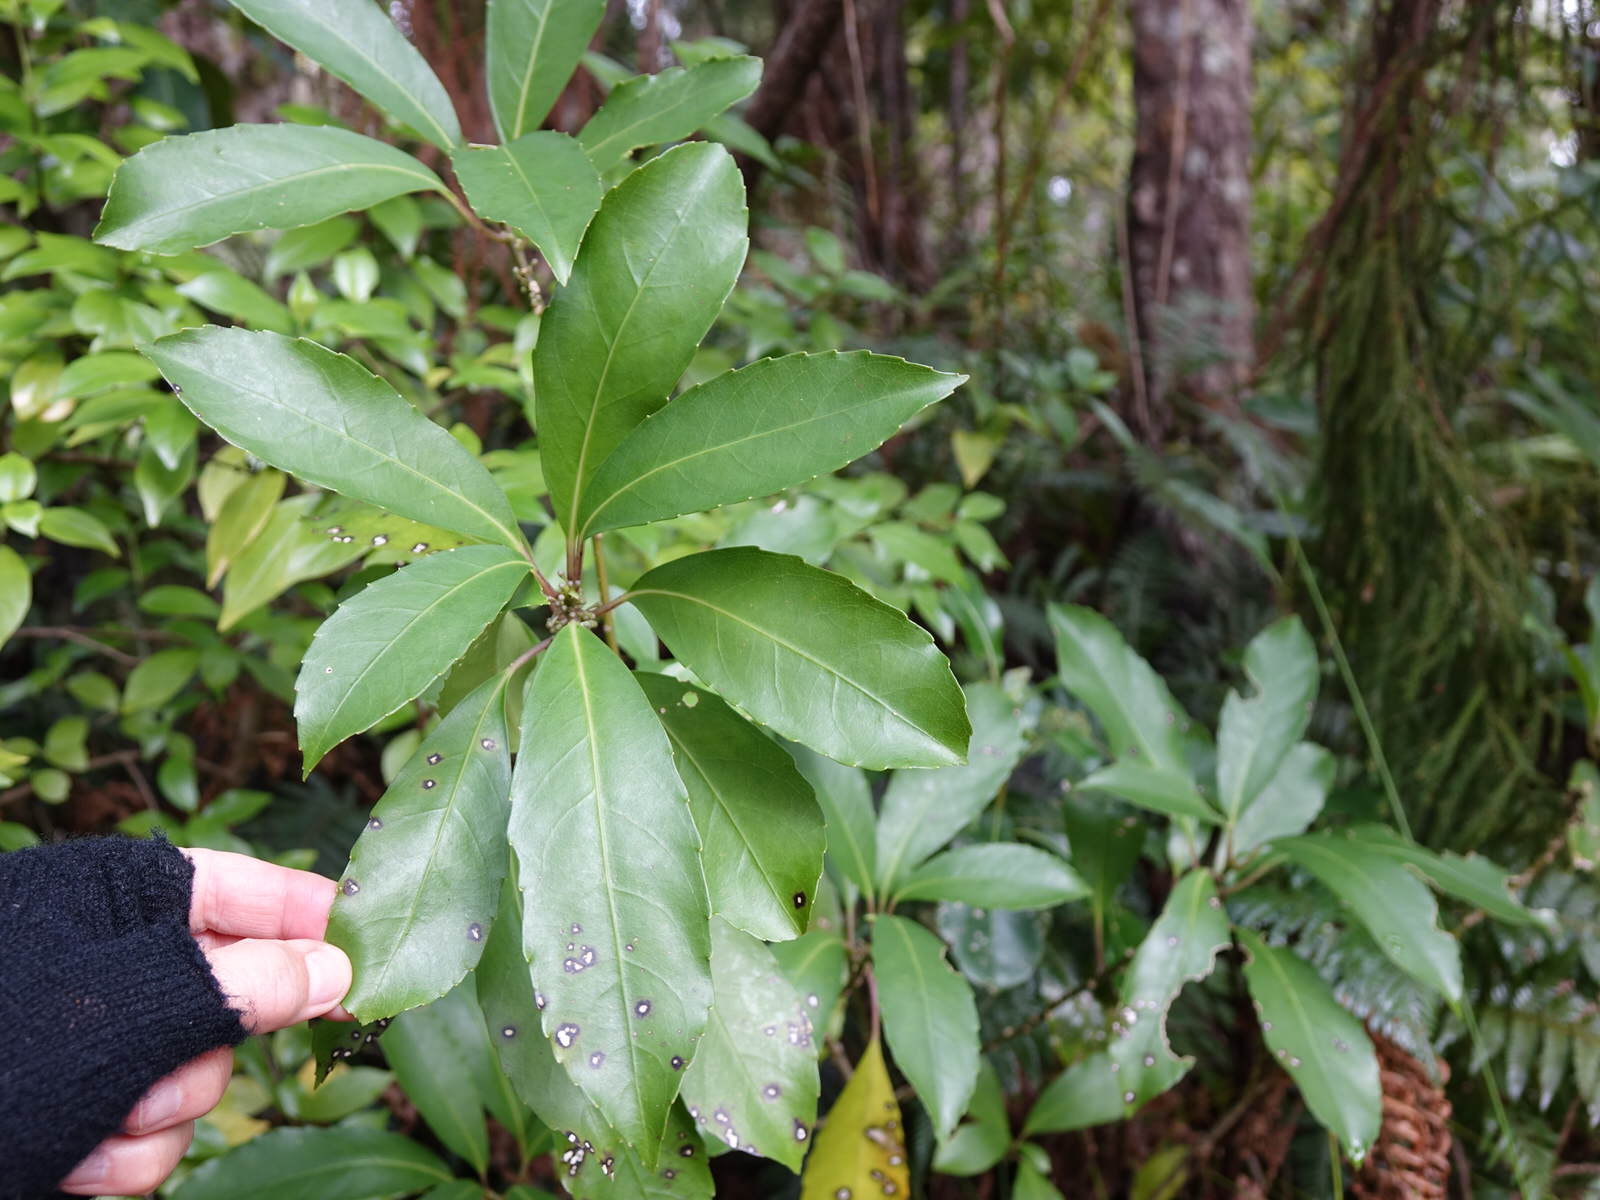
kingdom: Plantae
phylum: Tracheophyta
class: Magnoliopsida
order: Malpighiales
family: Violaceae
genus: Melicytus
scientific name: Melicytus macrophyllus
